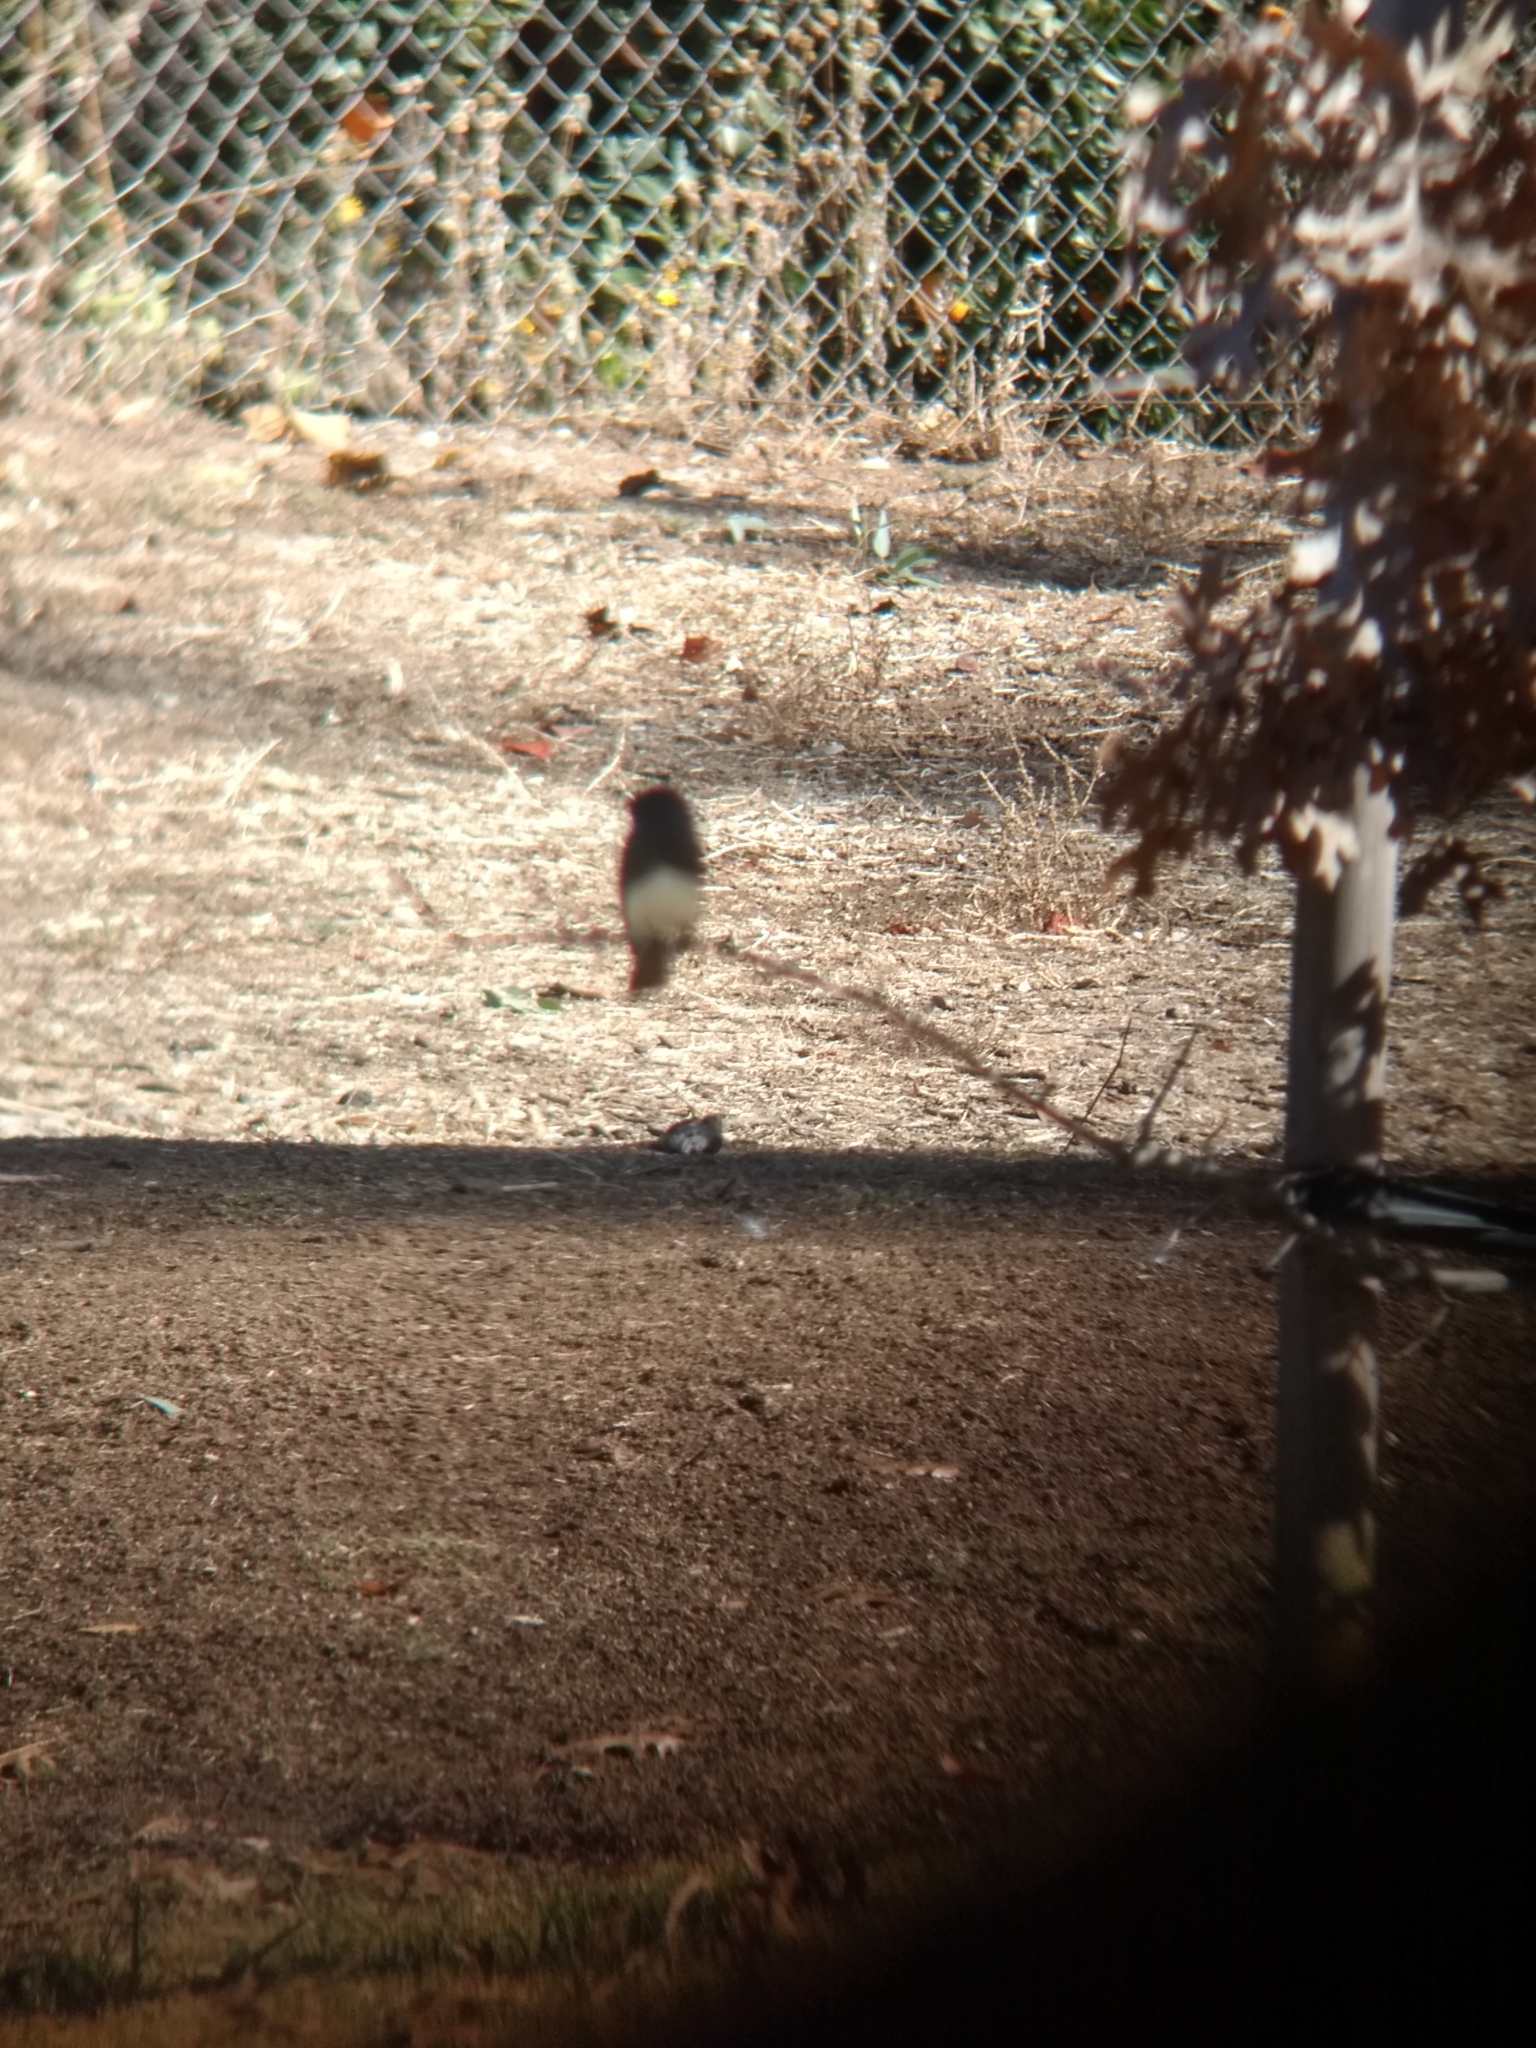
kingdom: Animalia
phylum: Chordata
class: Aves
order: Passeriformes
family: Tyrannidae
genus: Sayornis
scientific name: Sayornis nigricans
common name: Black phoebe
